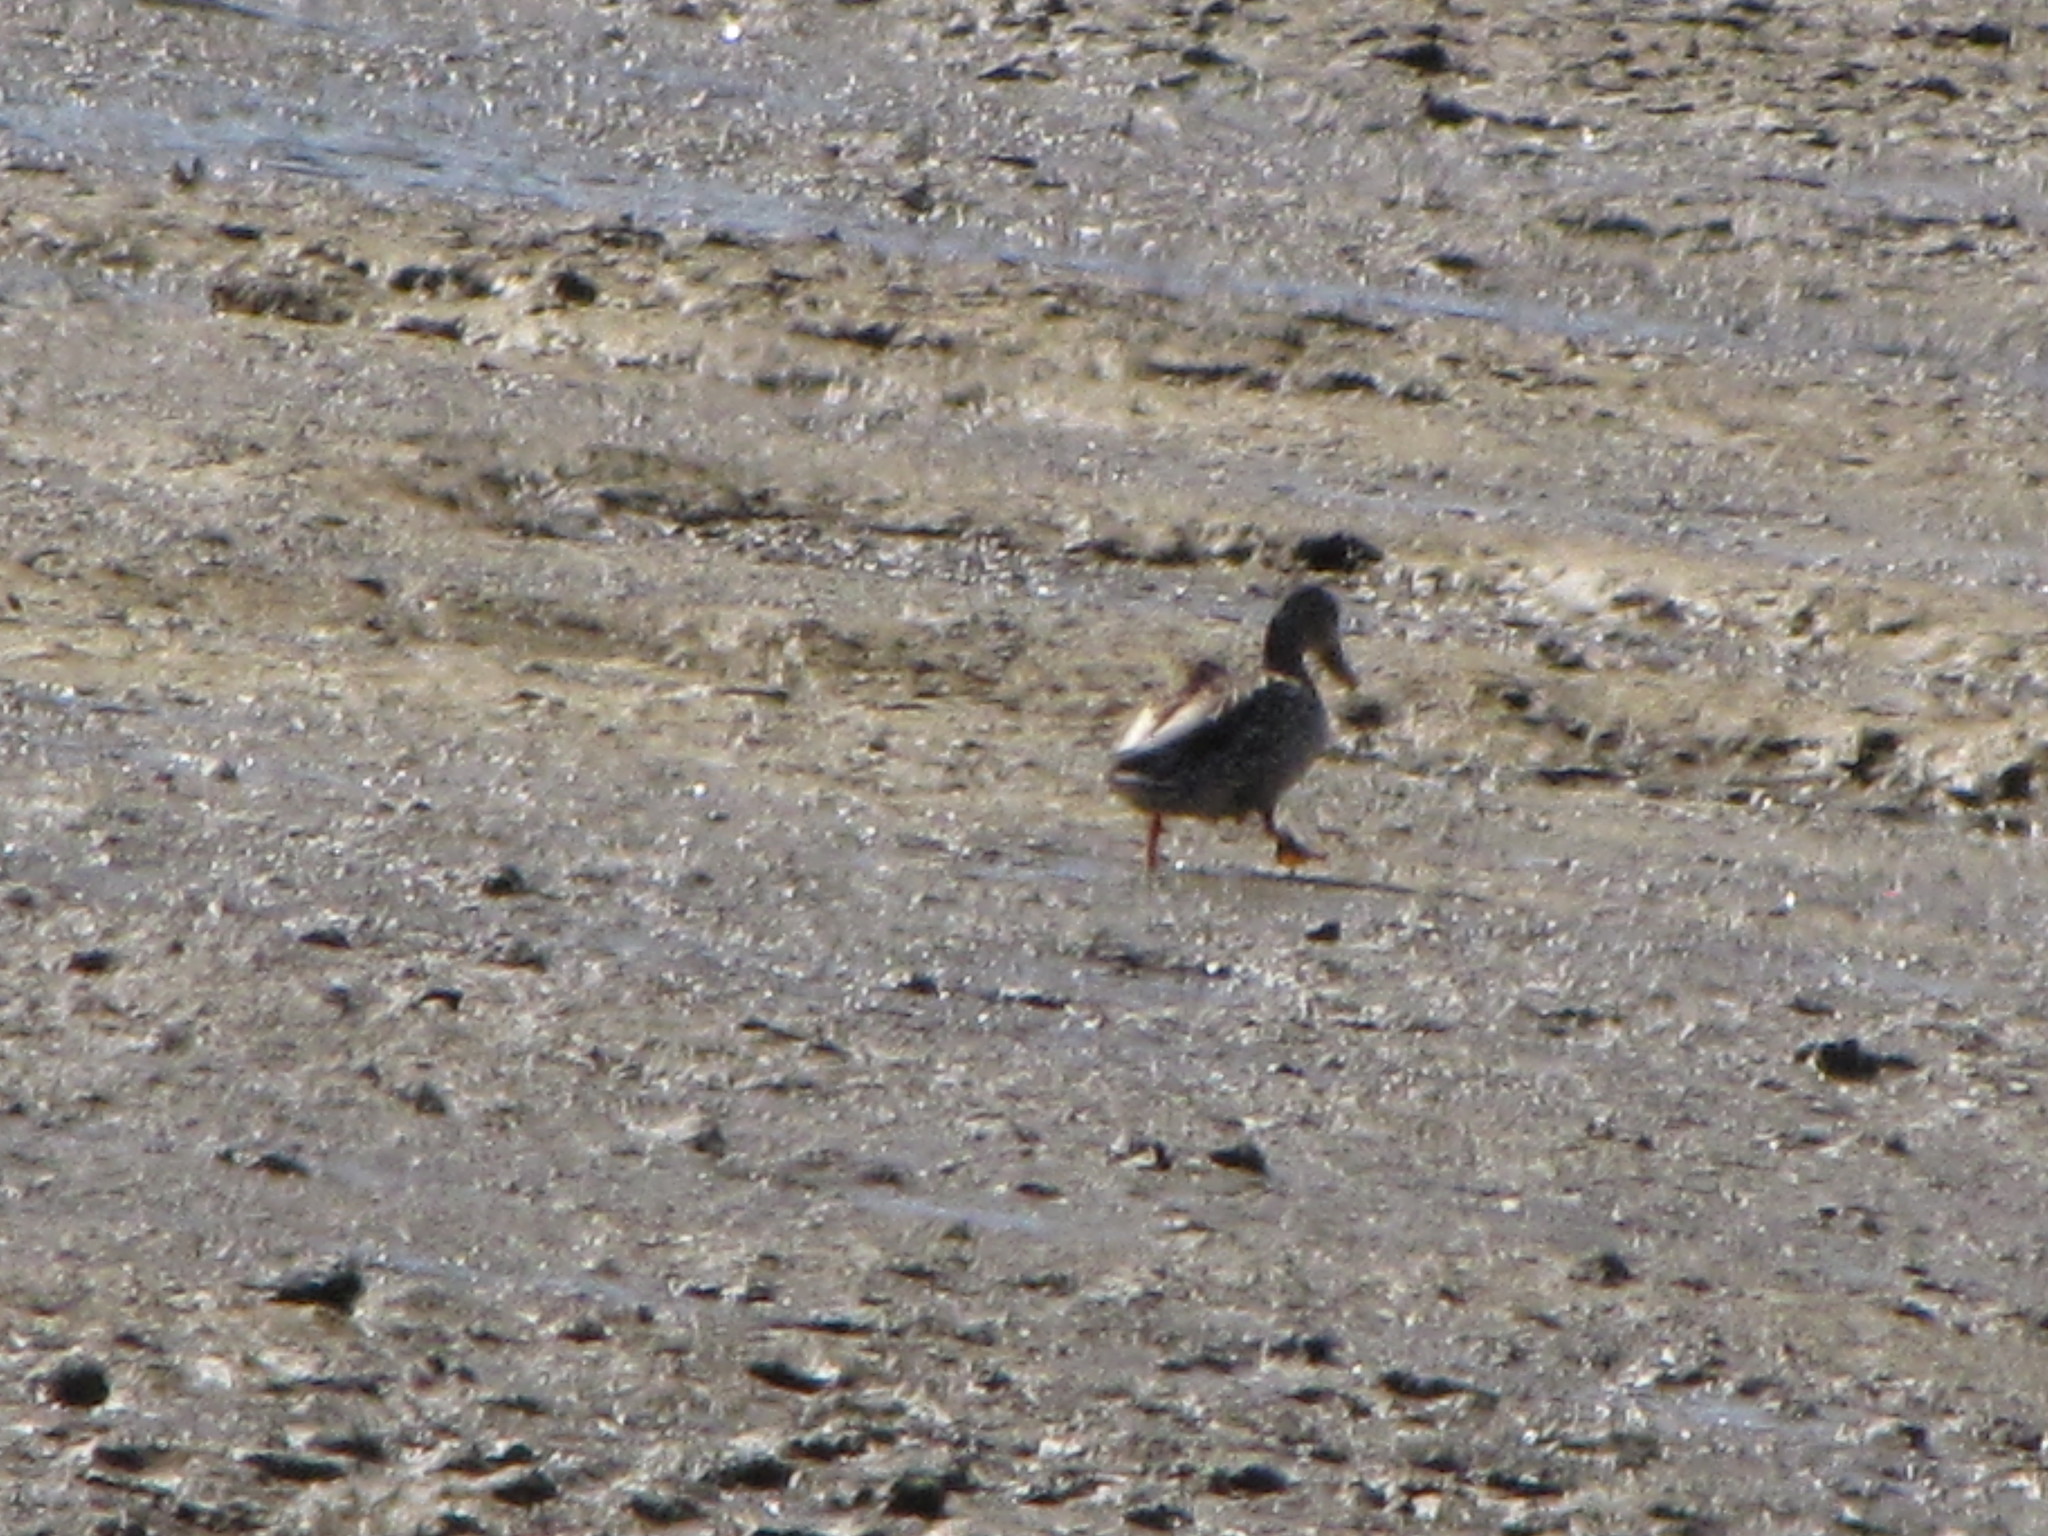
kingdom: Animalia
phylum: Chordata
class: Aves
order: Anseriformes
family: Anatidae
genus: Anas
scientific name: Anas platyrhynchos
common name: Mallard
